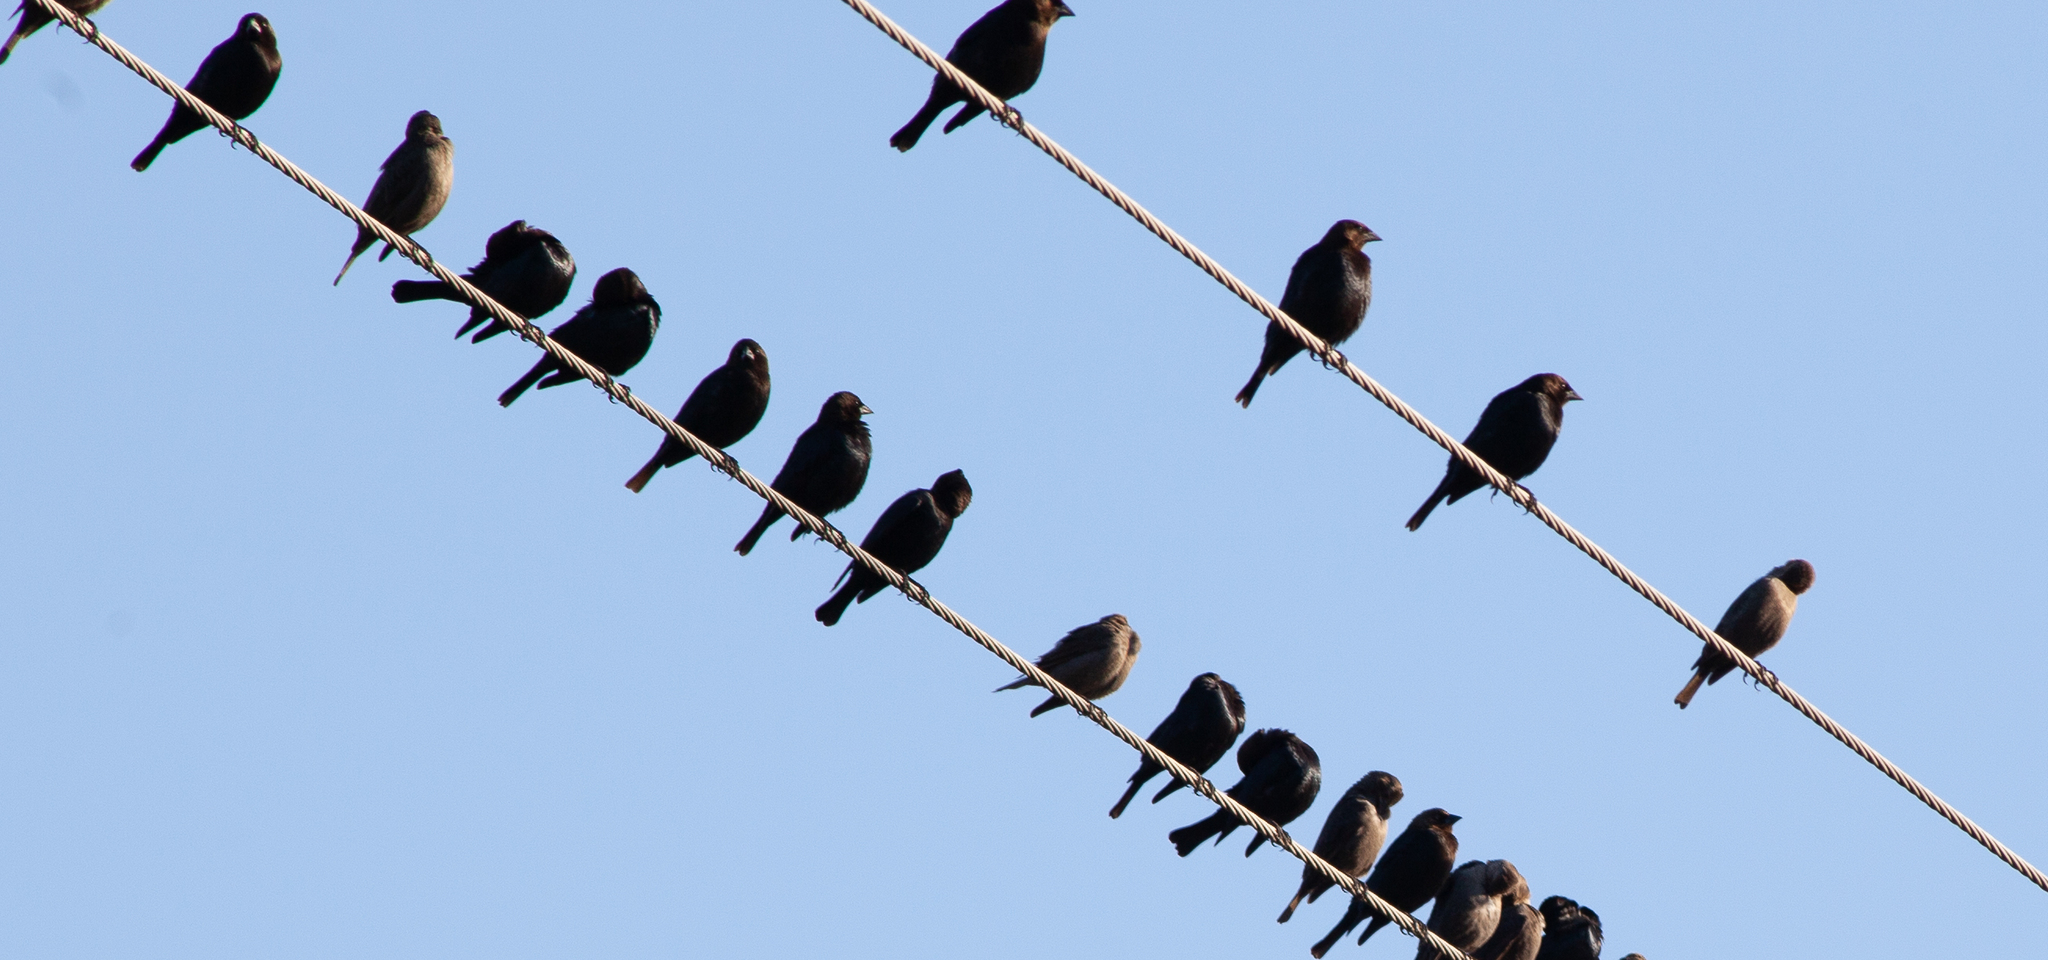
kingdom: Animalia
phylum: Chordata
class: Aves
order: Passeriformes
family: Icteridae
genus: Molothrus
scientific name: Molothrus ater
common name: Brown-headed cowbird
